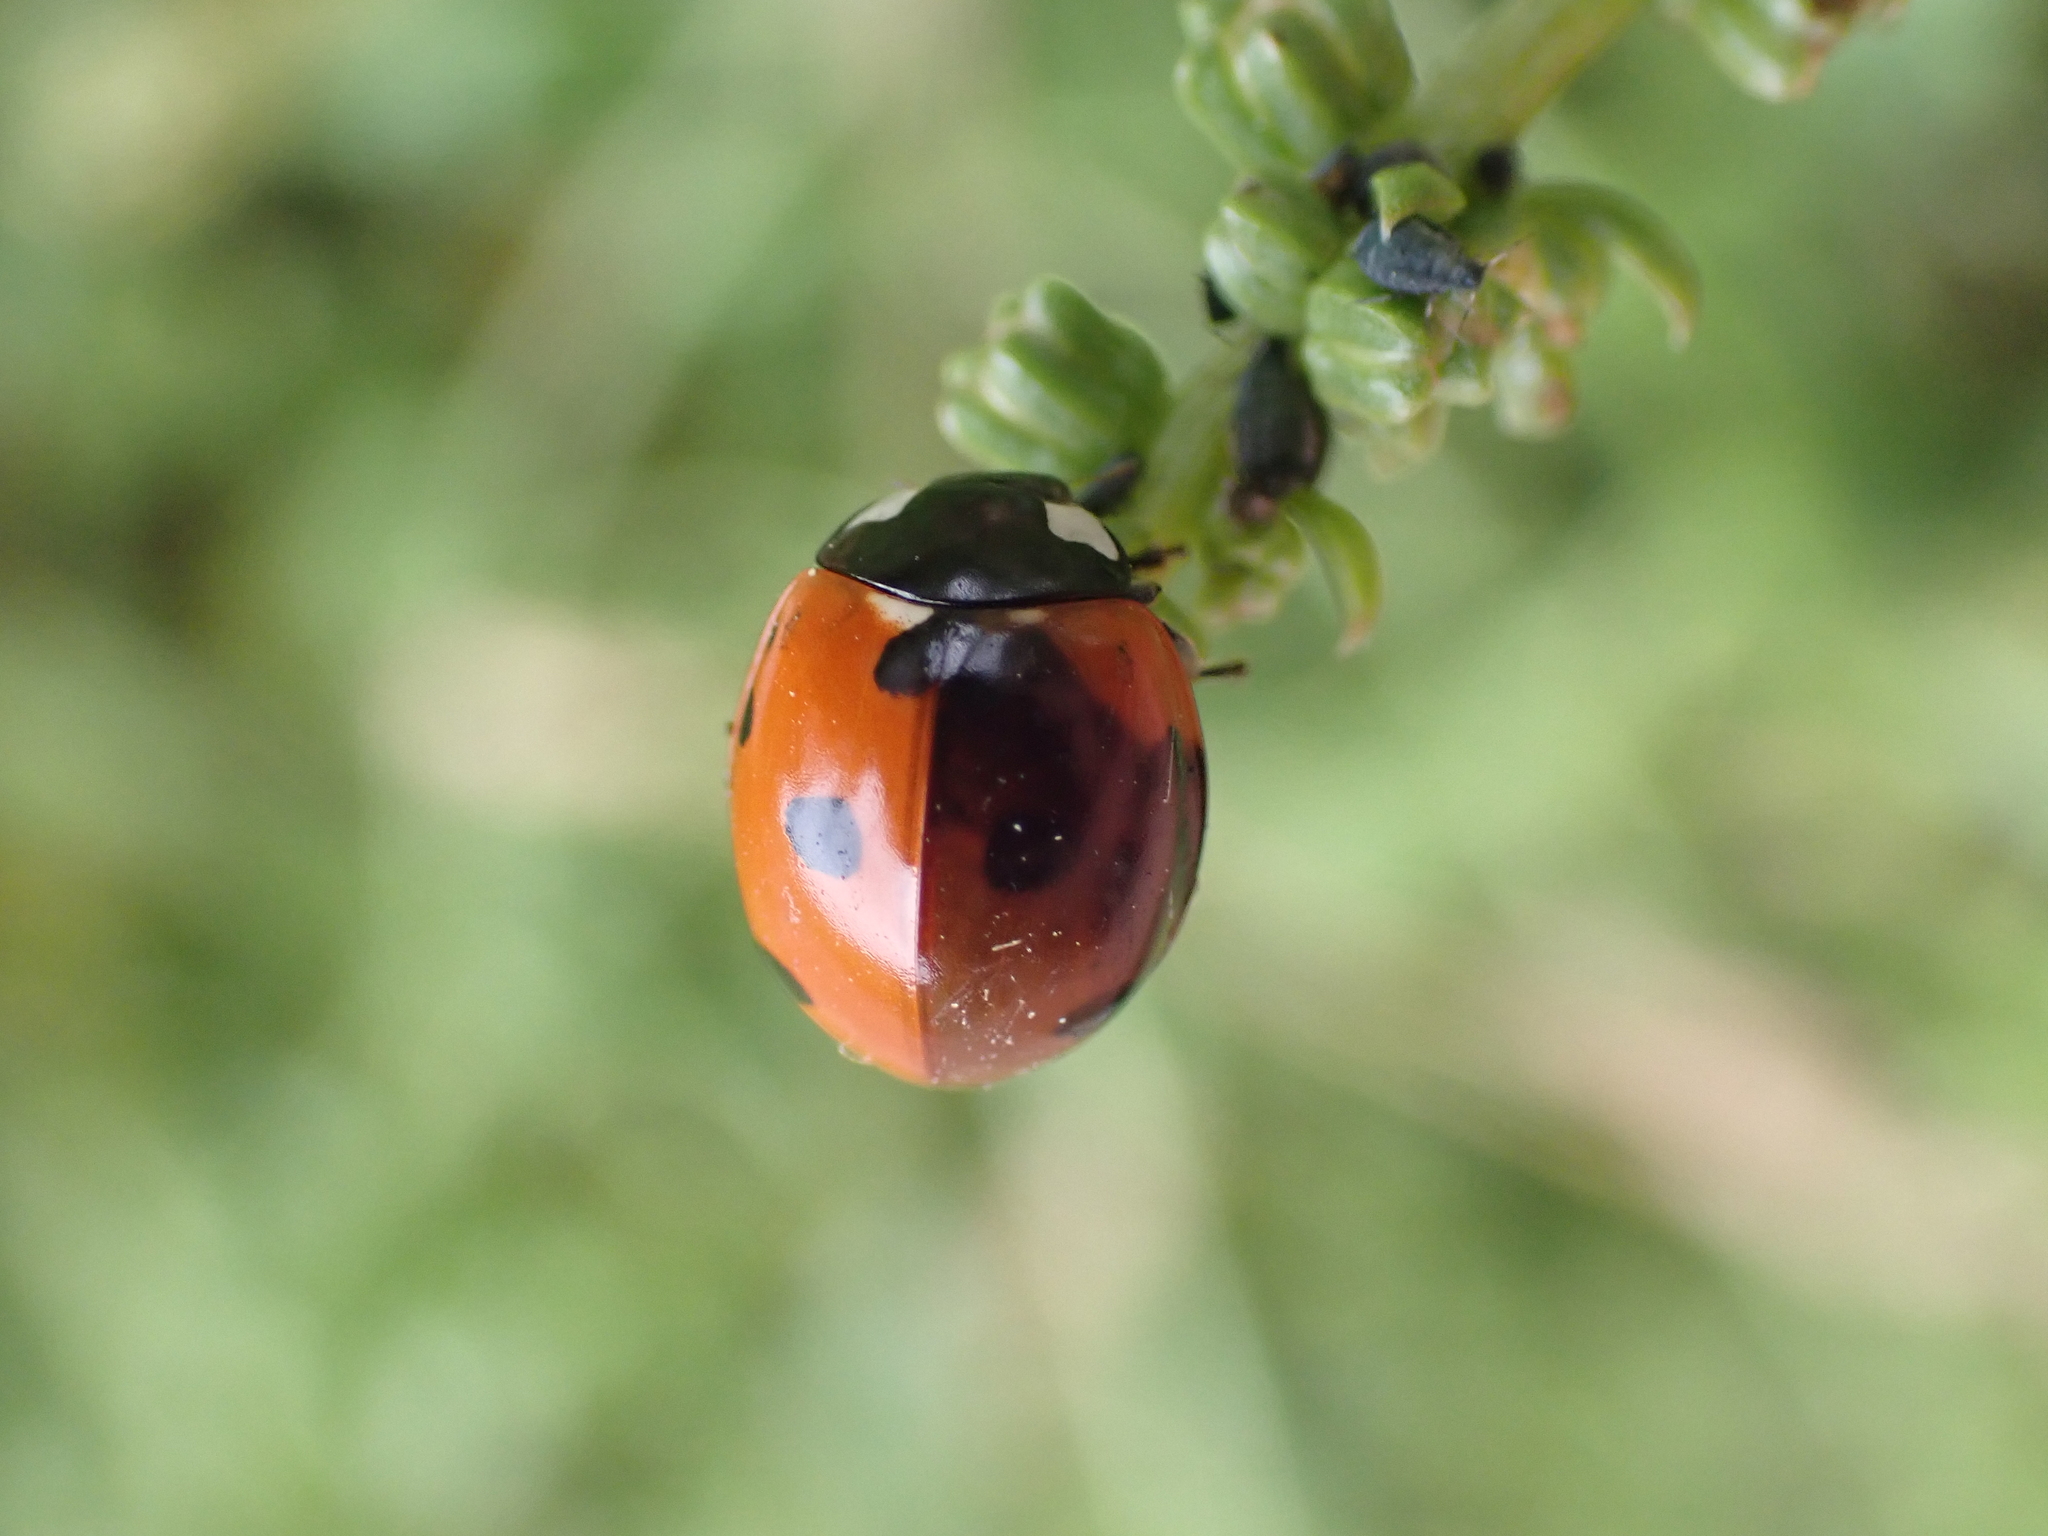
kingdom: Animalia
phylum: Arthropoda
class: Insecta
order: Coleoptera
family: Coccinellidae
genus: Coccinella
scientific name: Coccinella septempunctata
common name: Sevenspotted lady beetle
